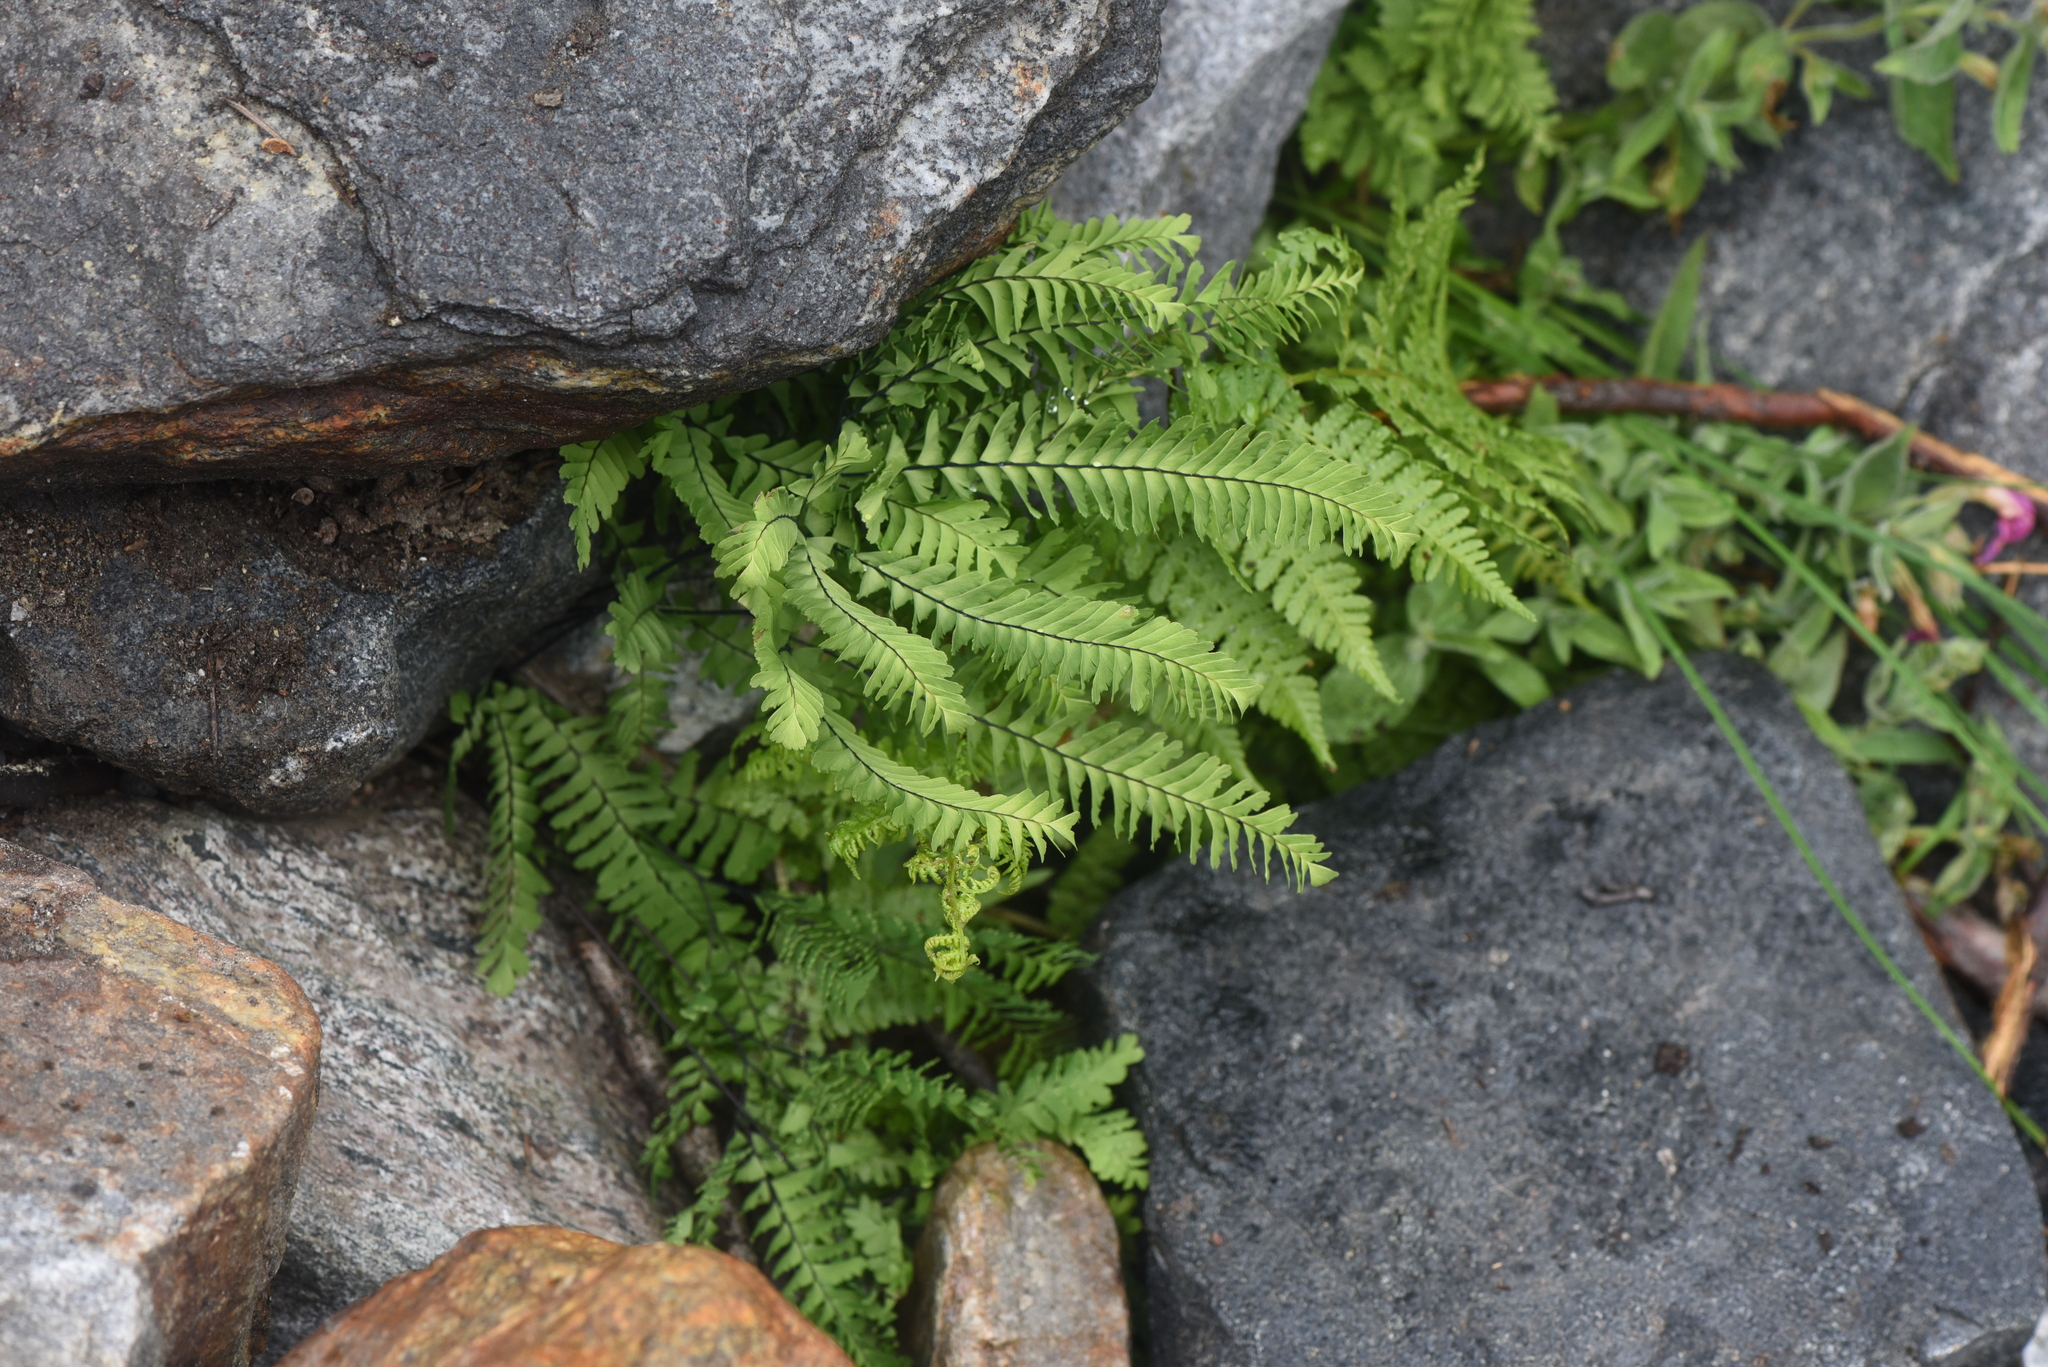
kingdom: Plantae
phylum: Tracheophyta
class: Polypodiopsida
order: Polypodiales
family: Pteridaceae
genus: Adiantum
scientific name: Adiantum aleuticum
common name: Aleutian maidenhair fern
